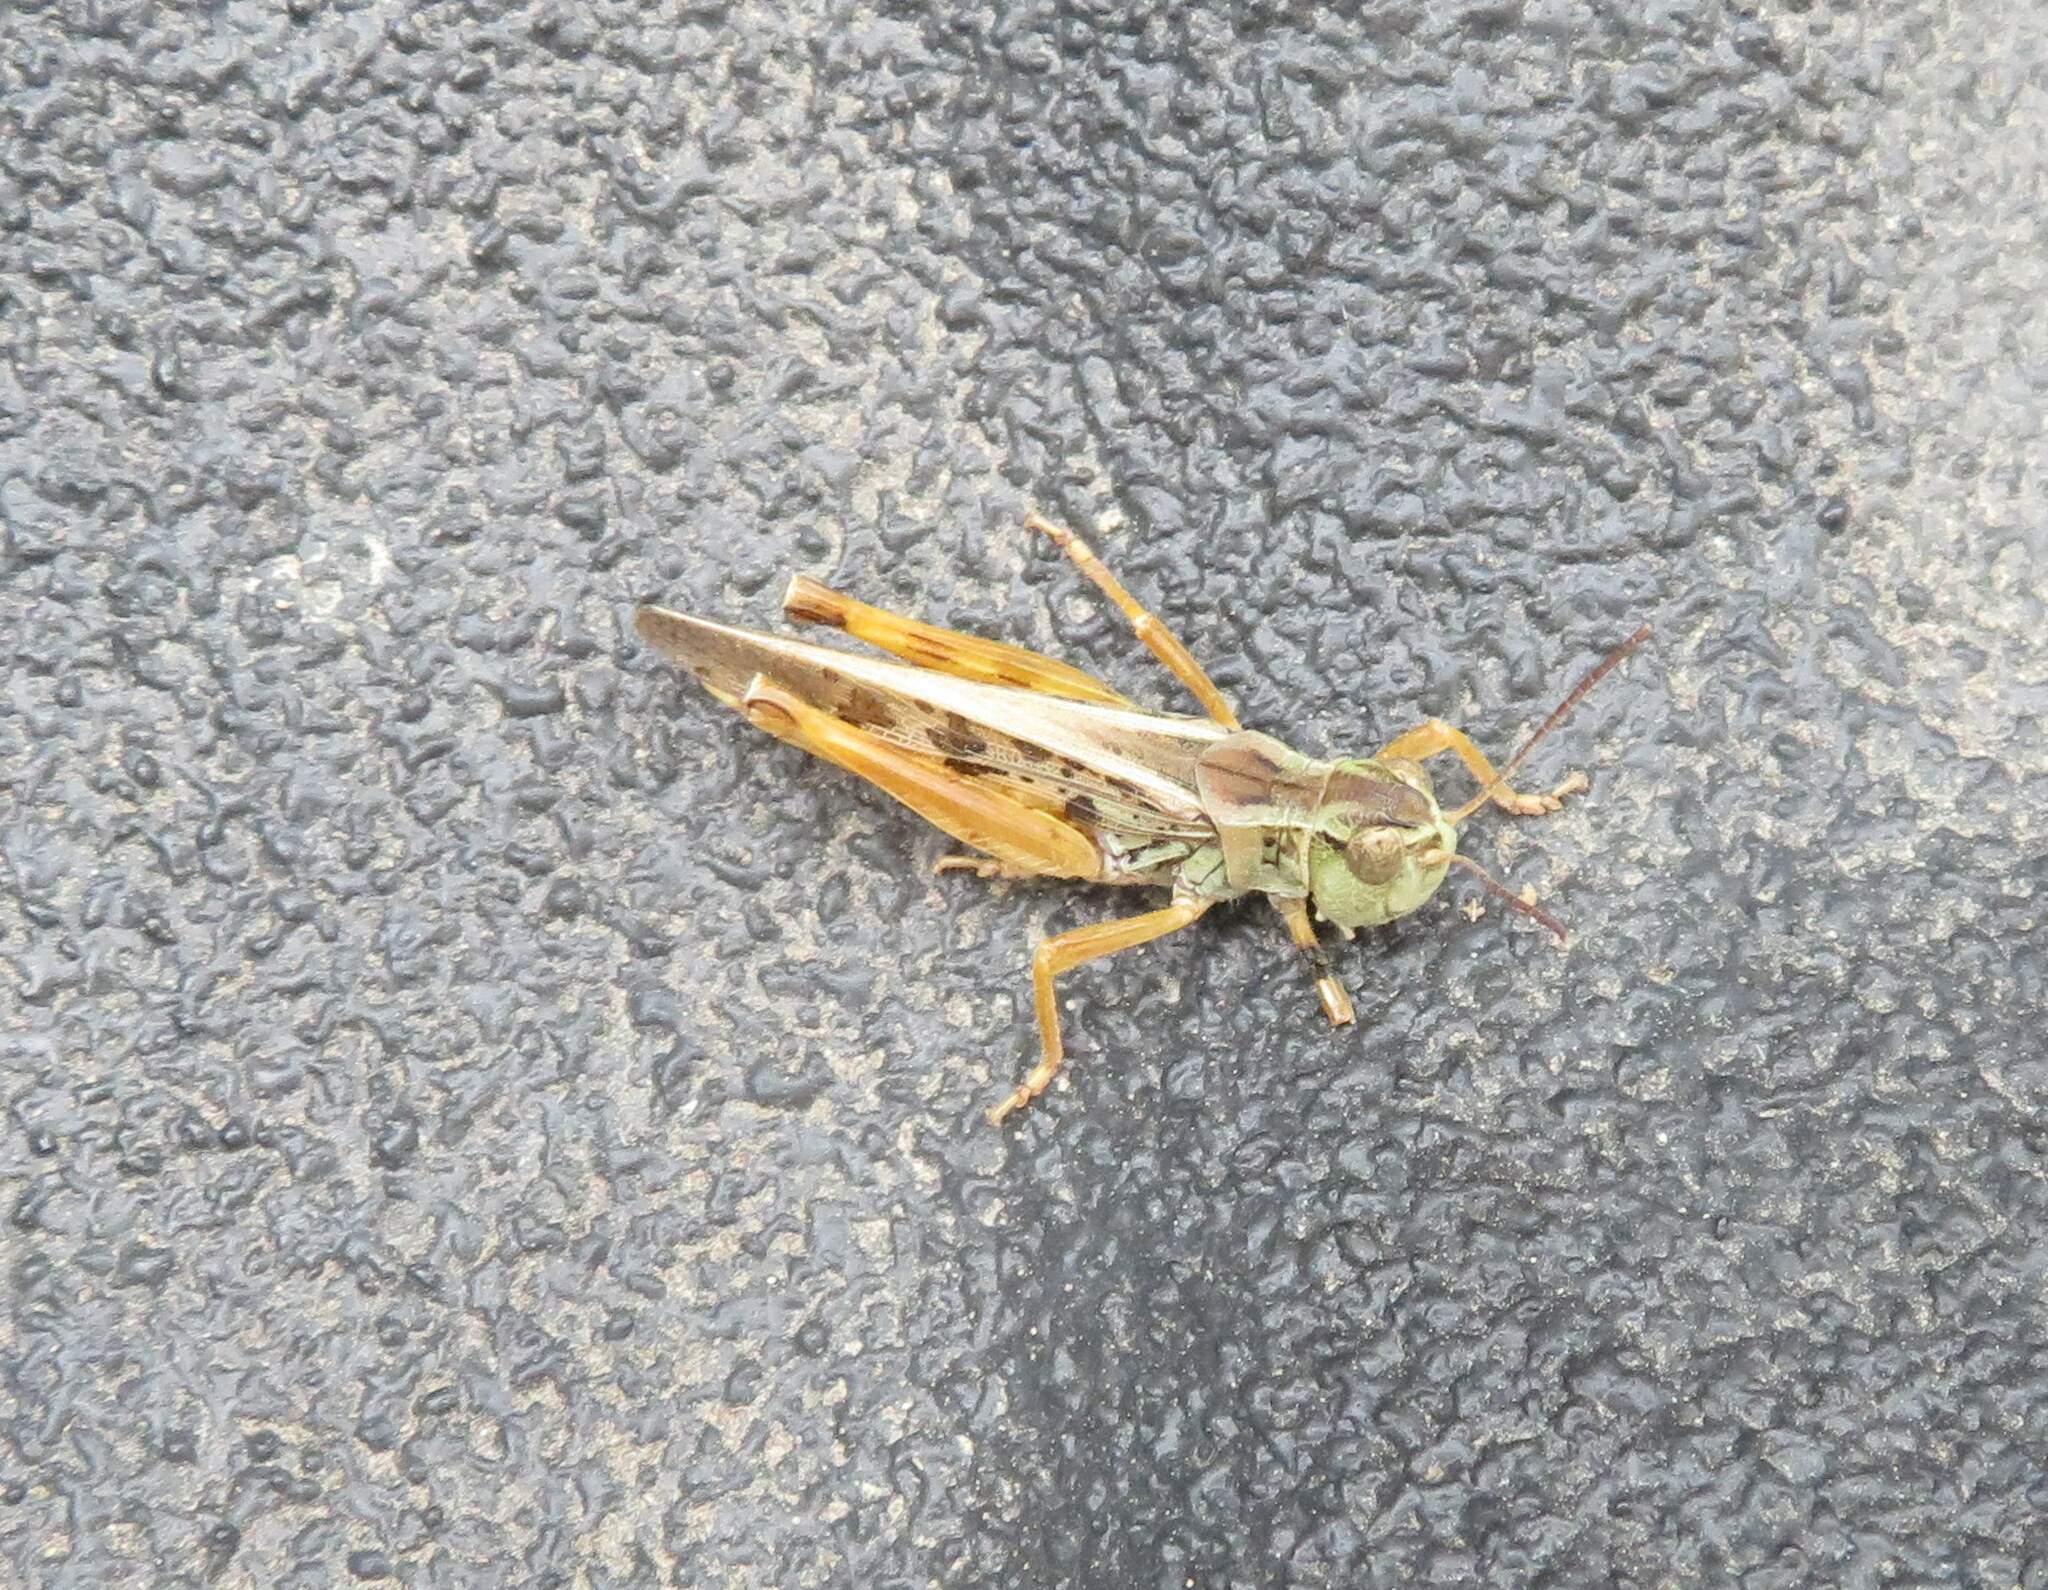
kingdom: Animalia
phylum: Arthropoda
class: Insecta
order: Orthoptera
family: Acrididae
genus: Camnula
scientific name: Camnula pellucida
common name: Clear-winged grasshopper
